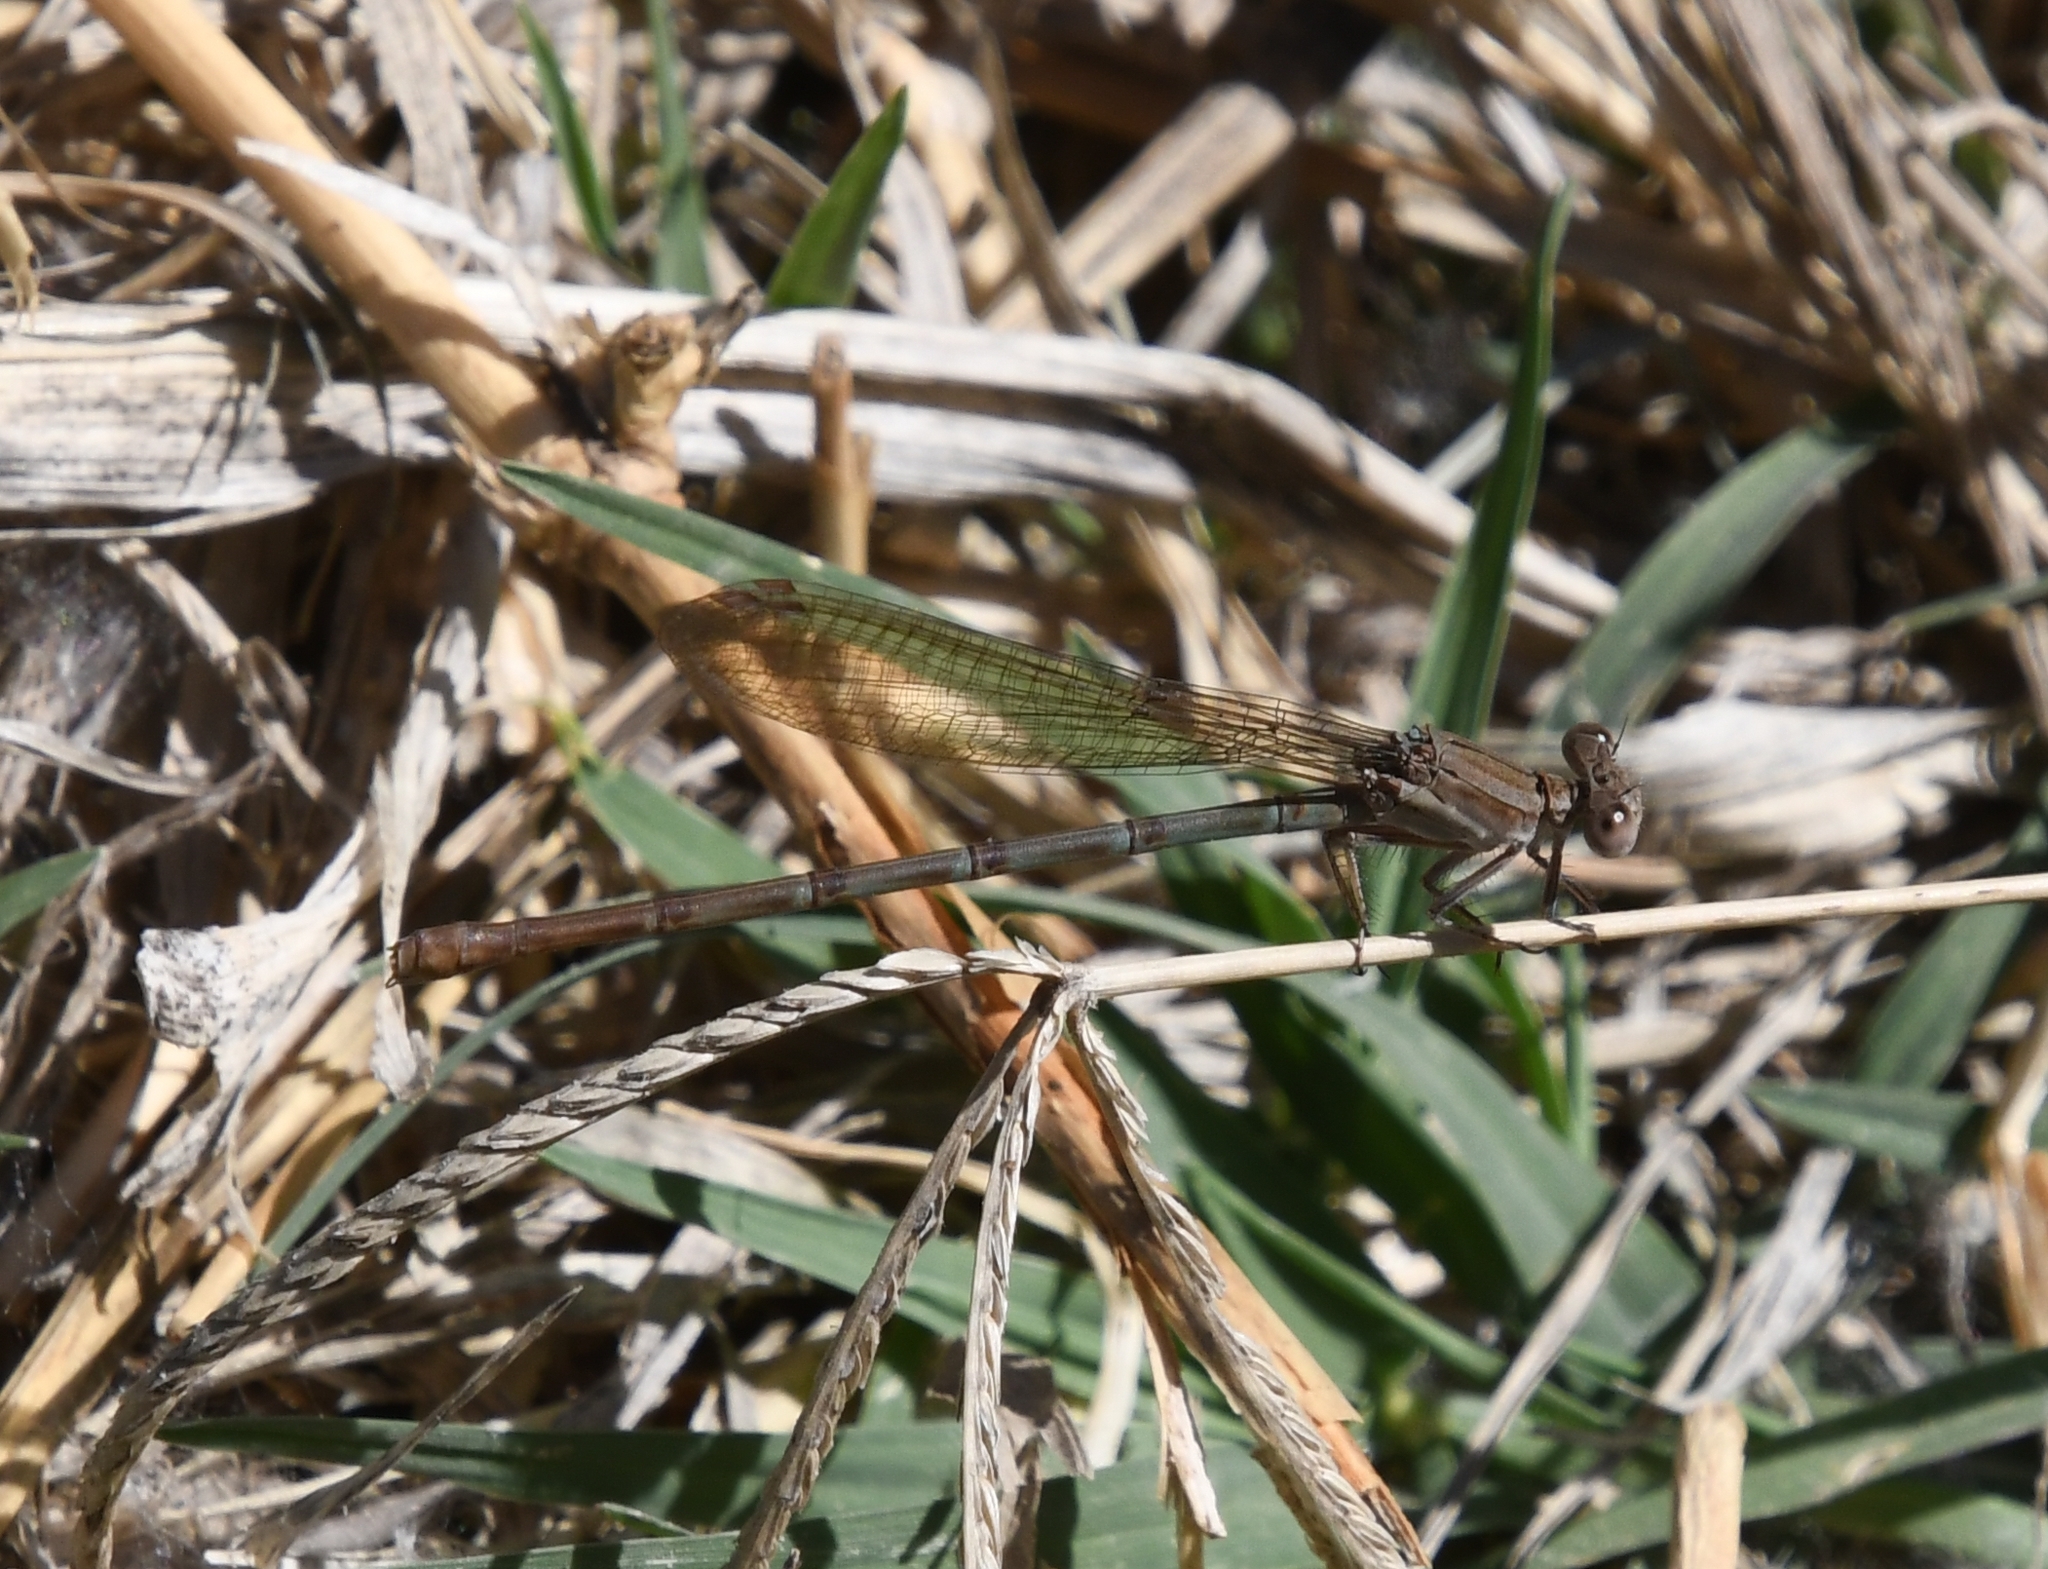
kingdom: Animalia
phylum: Arthropoda
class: Insecta
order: Odonata
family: Coenagrionidae
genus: Argia
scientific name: Argia sedula
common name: Blue-ringed dancer
